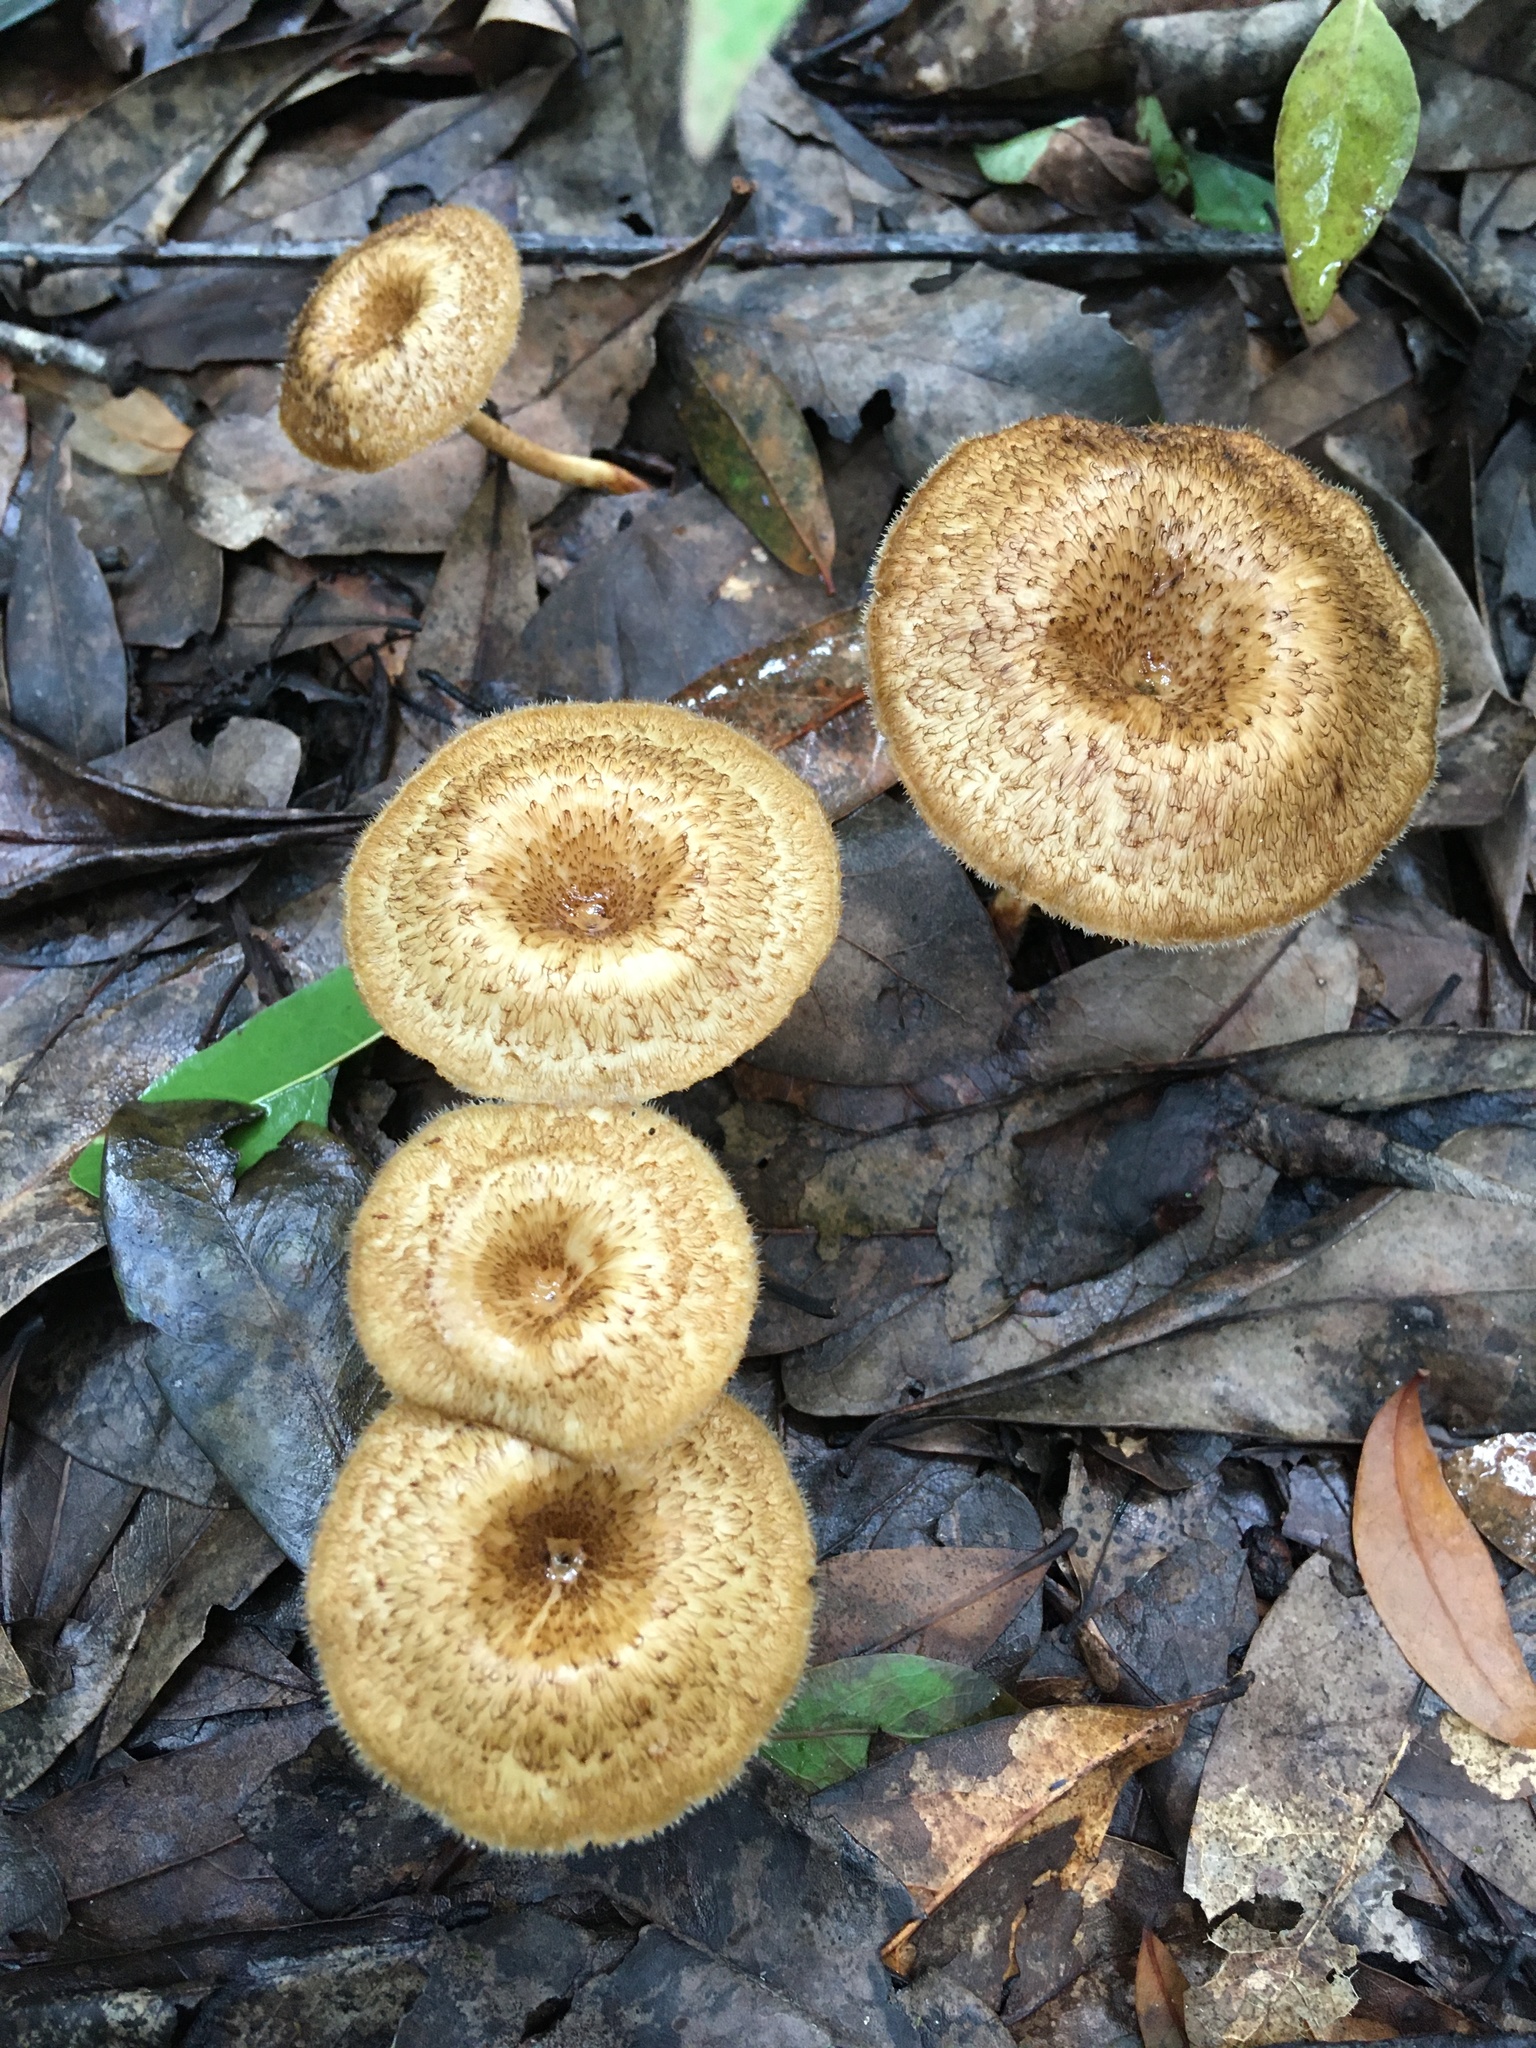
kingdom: Fungi
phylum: Basidiomycota
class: Agaricomycetes
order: Polyporales
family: Polyporaceae
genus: Lentinus
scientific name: Lentinus crinitus
